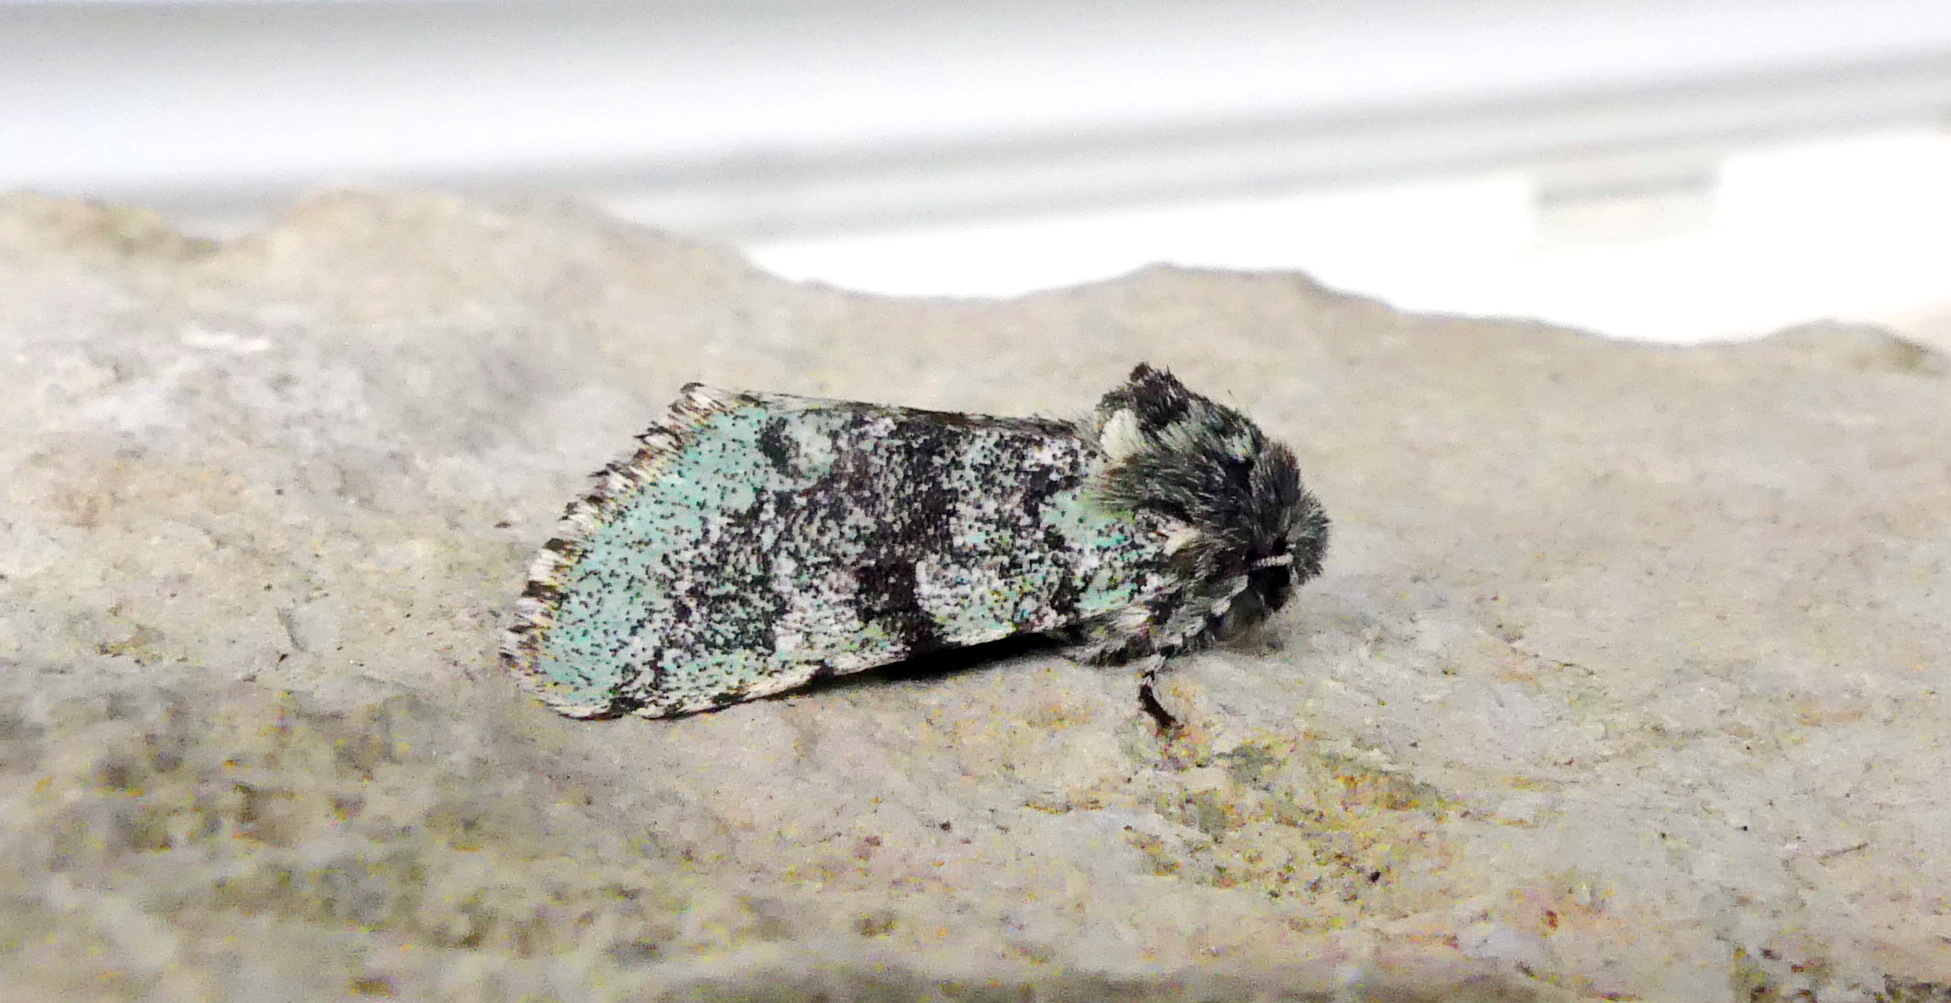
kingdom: Animalia
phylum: Arthropoda
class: Insecta
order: Lepidoptera
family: Noctuidae
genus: Feralia
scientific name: Feralia major
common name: Major sallow
